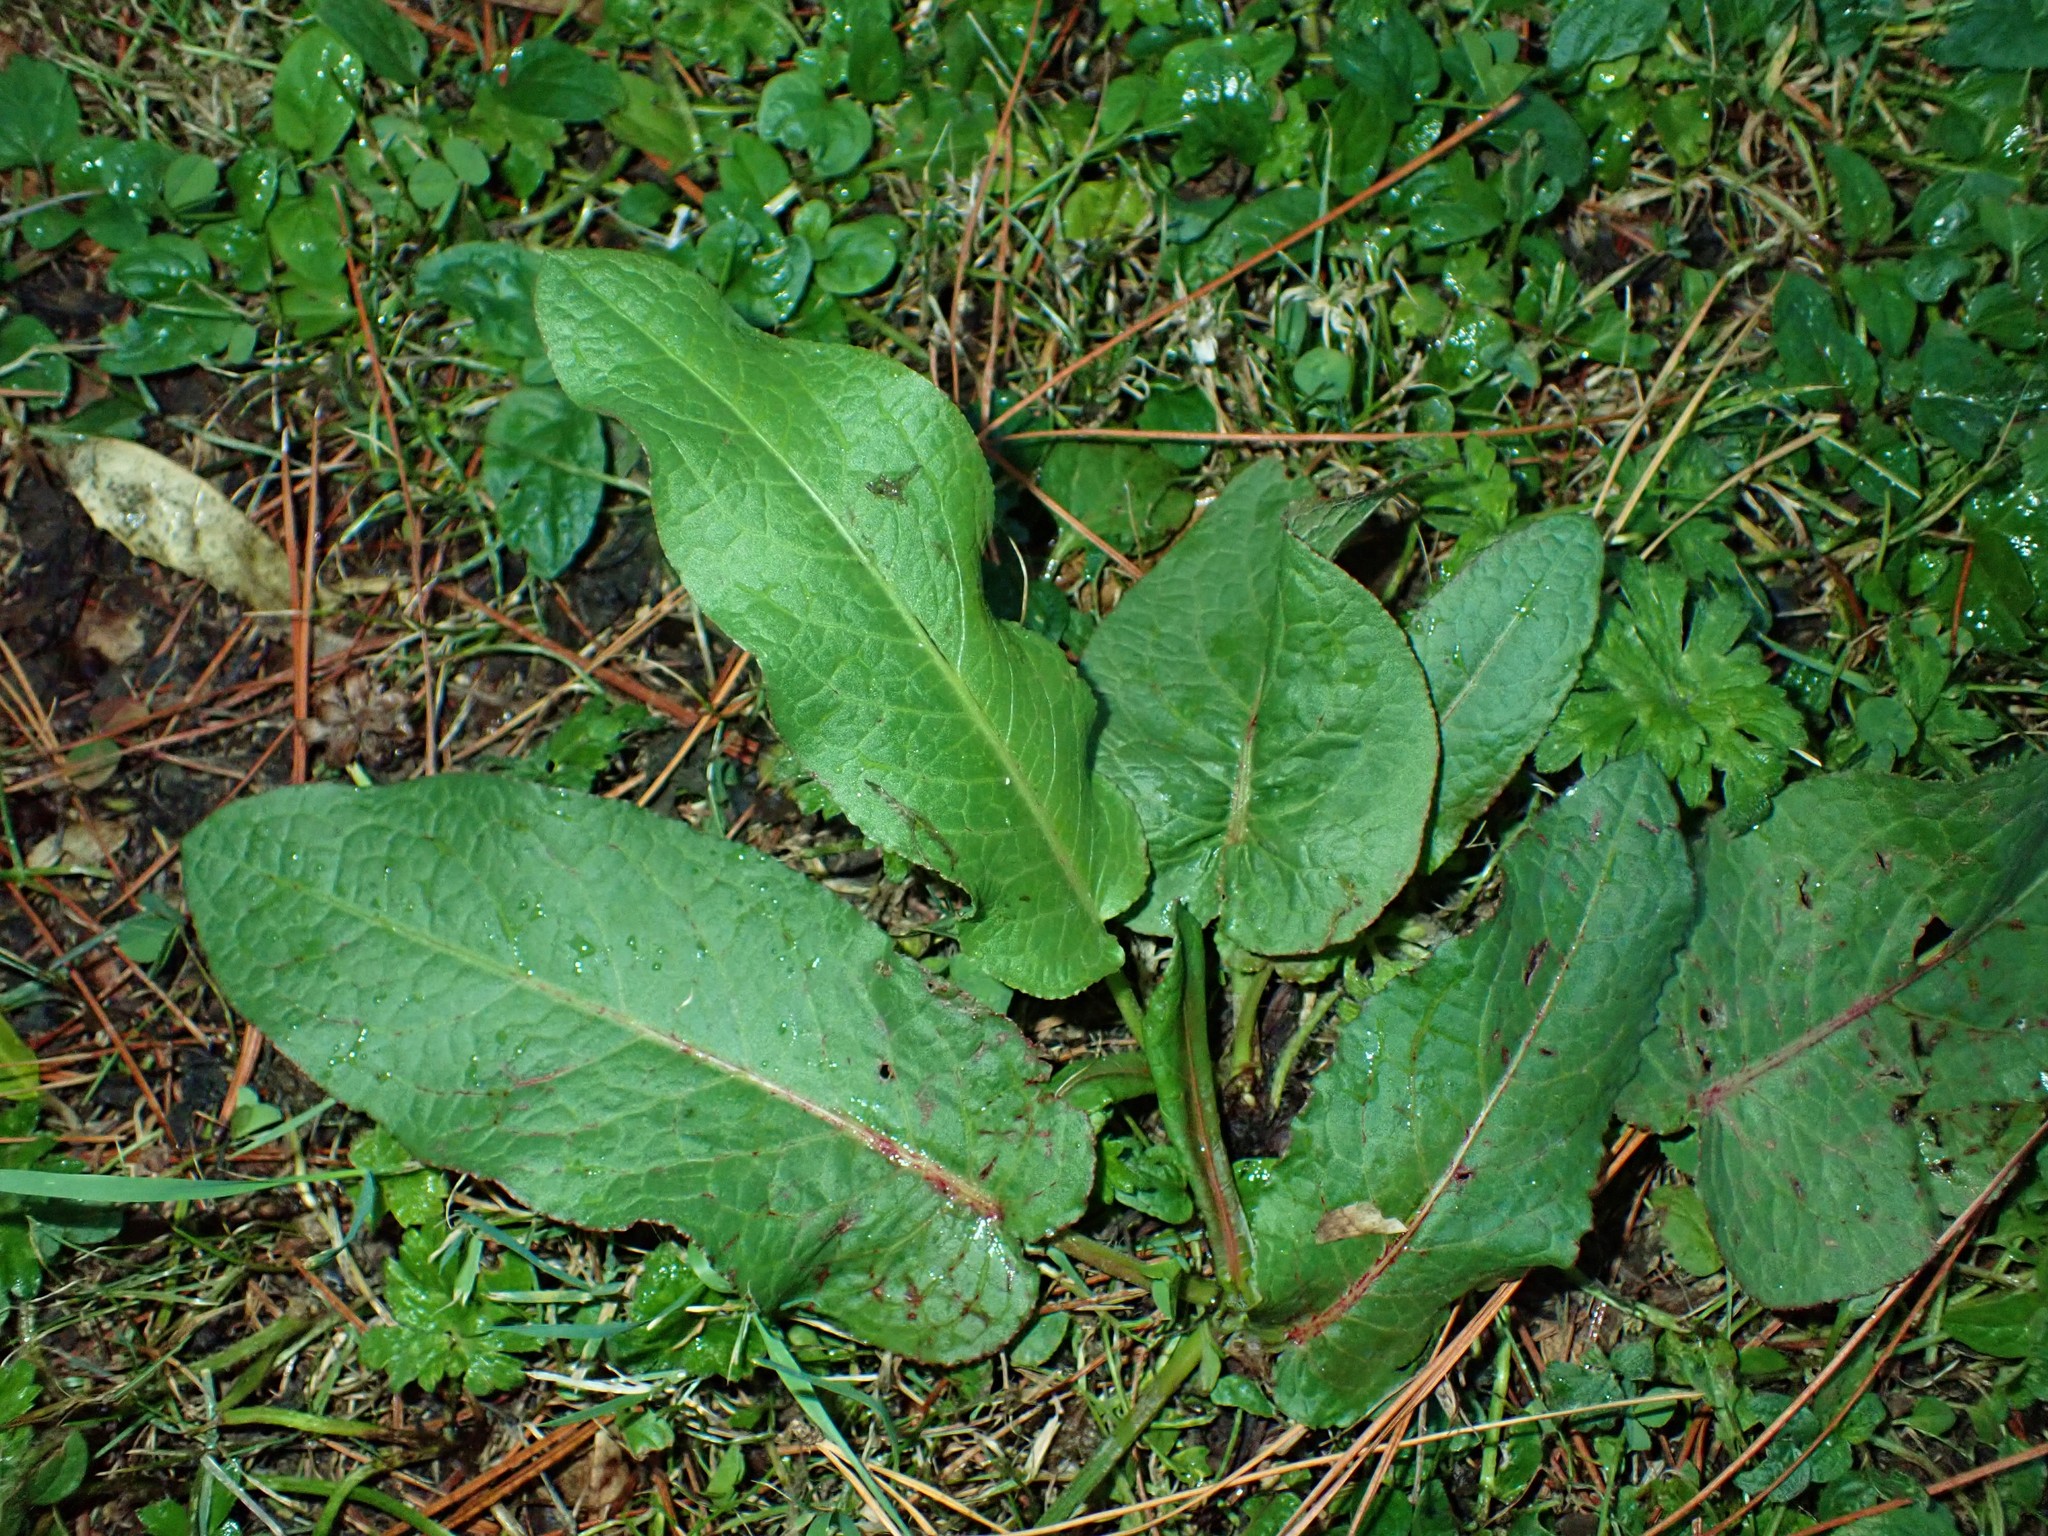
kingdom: Plantae
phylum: Tracheophyta
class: Magnoliopsida
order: Caryophyllales
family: Polygonaceae
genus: Rumex
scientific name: Rumex obtusifolius
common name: Bitter dock
